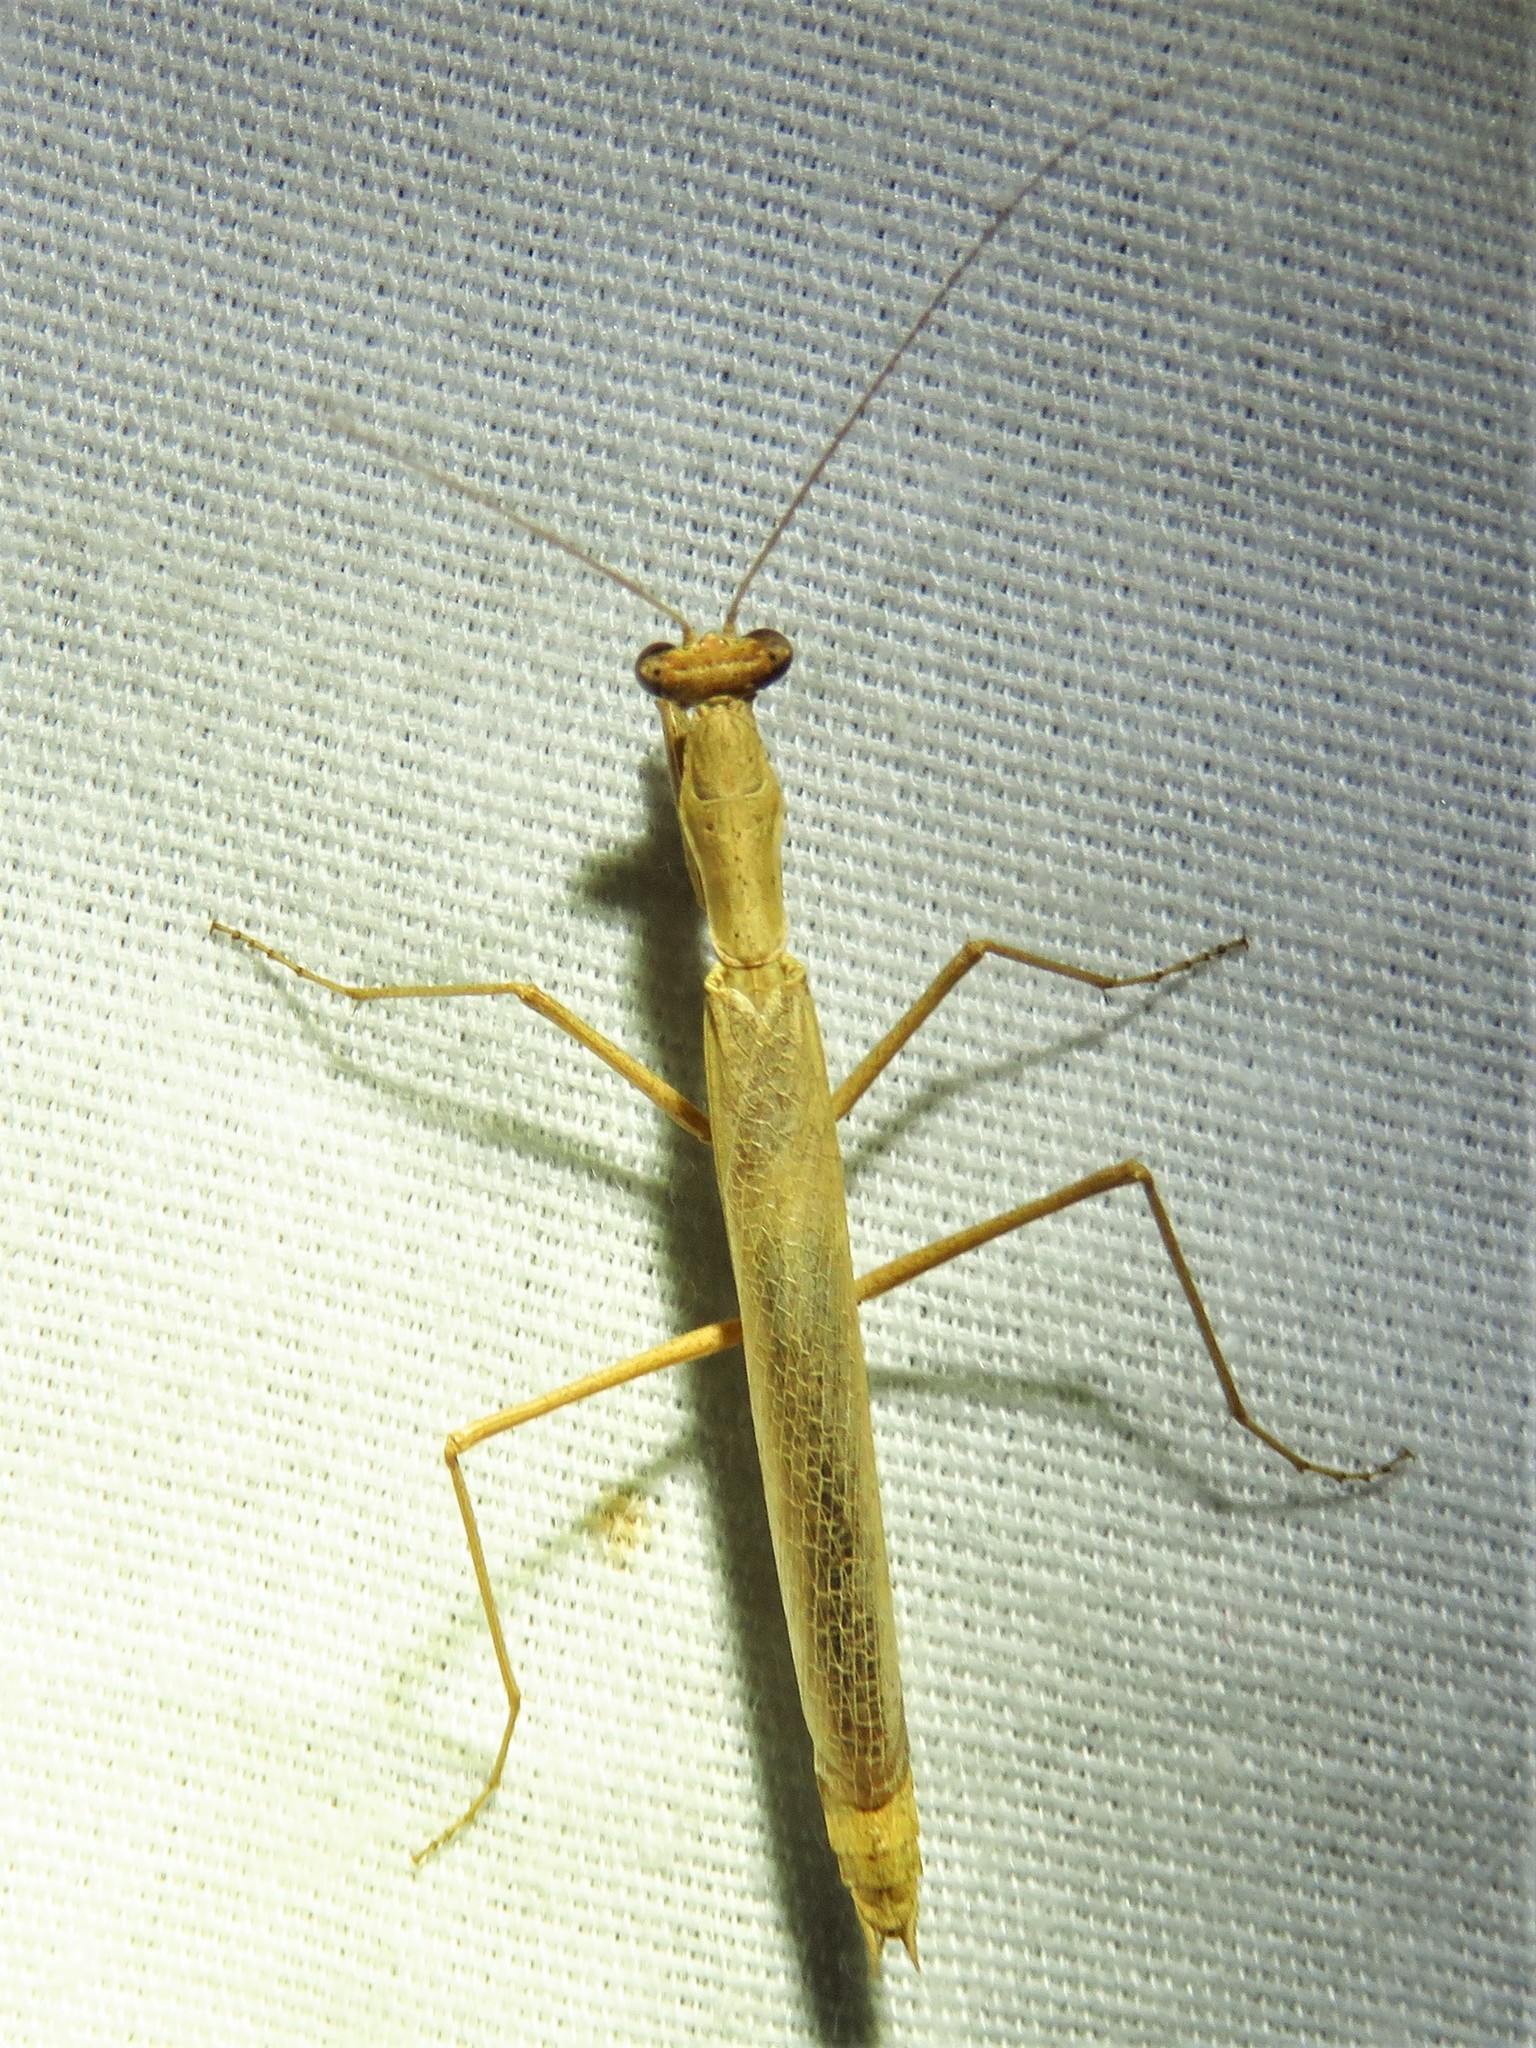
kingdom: Animalia
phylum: Arthropoda
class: Insecta
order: Mantodea
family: Amelidae
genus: Litaneutria
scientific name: Litaneutria minor
